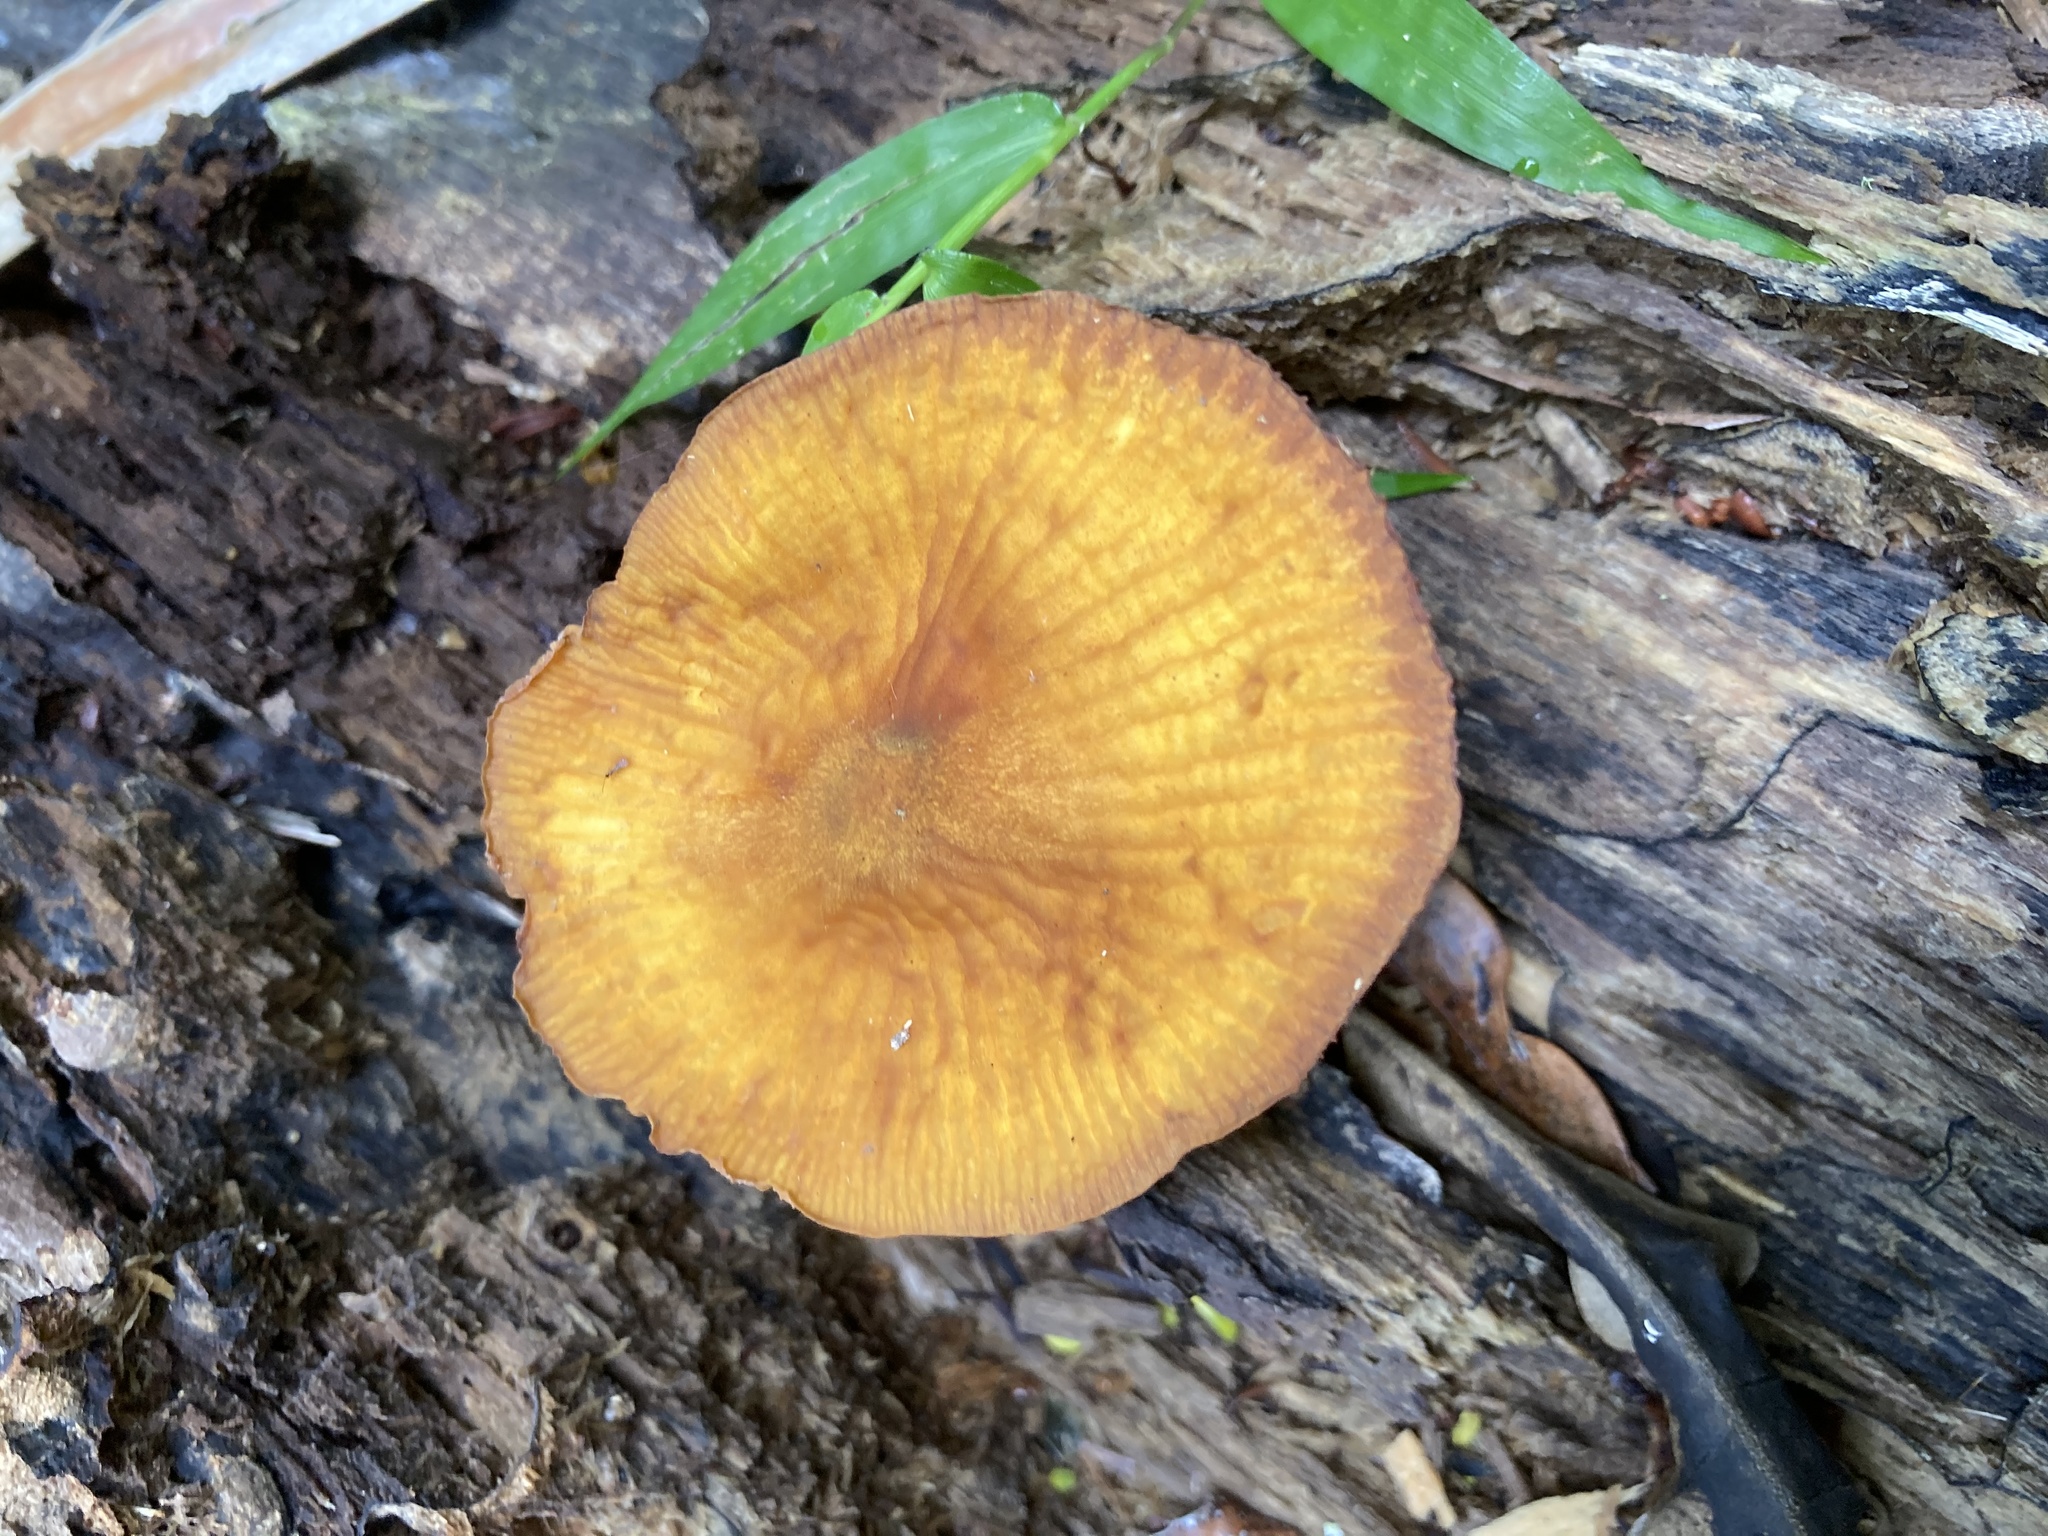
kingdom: Fungi
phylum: Basidiomycota
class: Agaricomycetes
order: Agaricales
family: Mycenaceae
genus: Heimiomyces
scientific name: Heimiomyces velutipes
